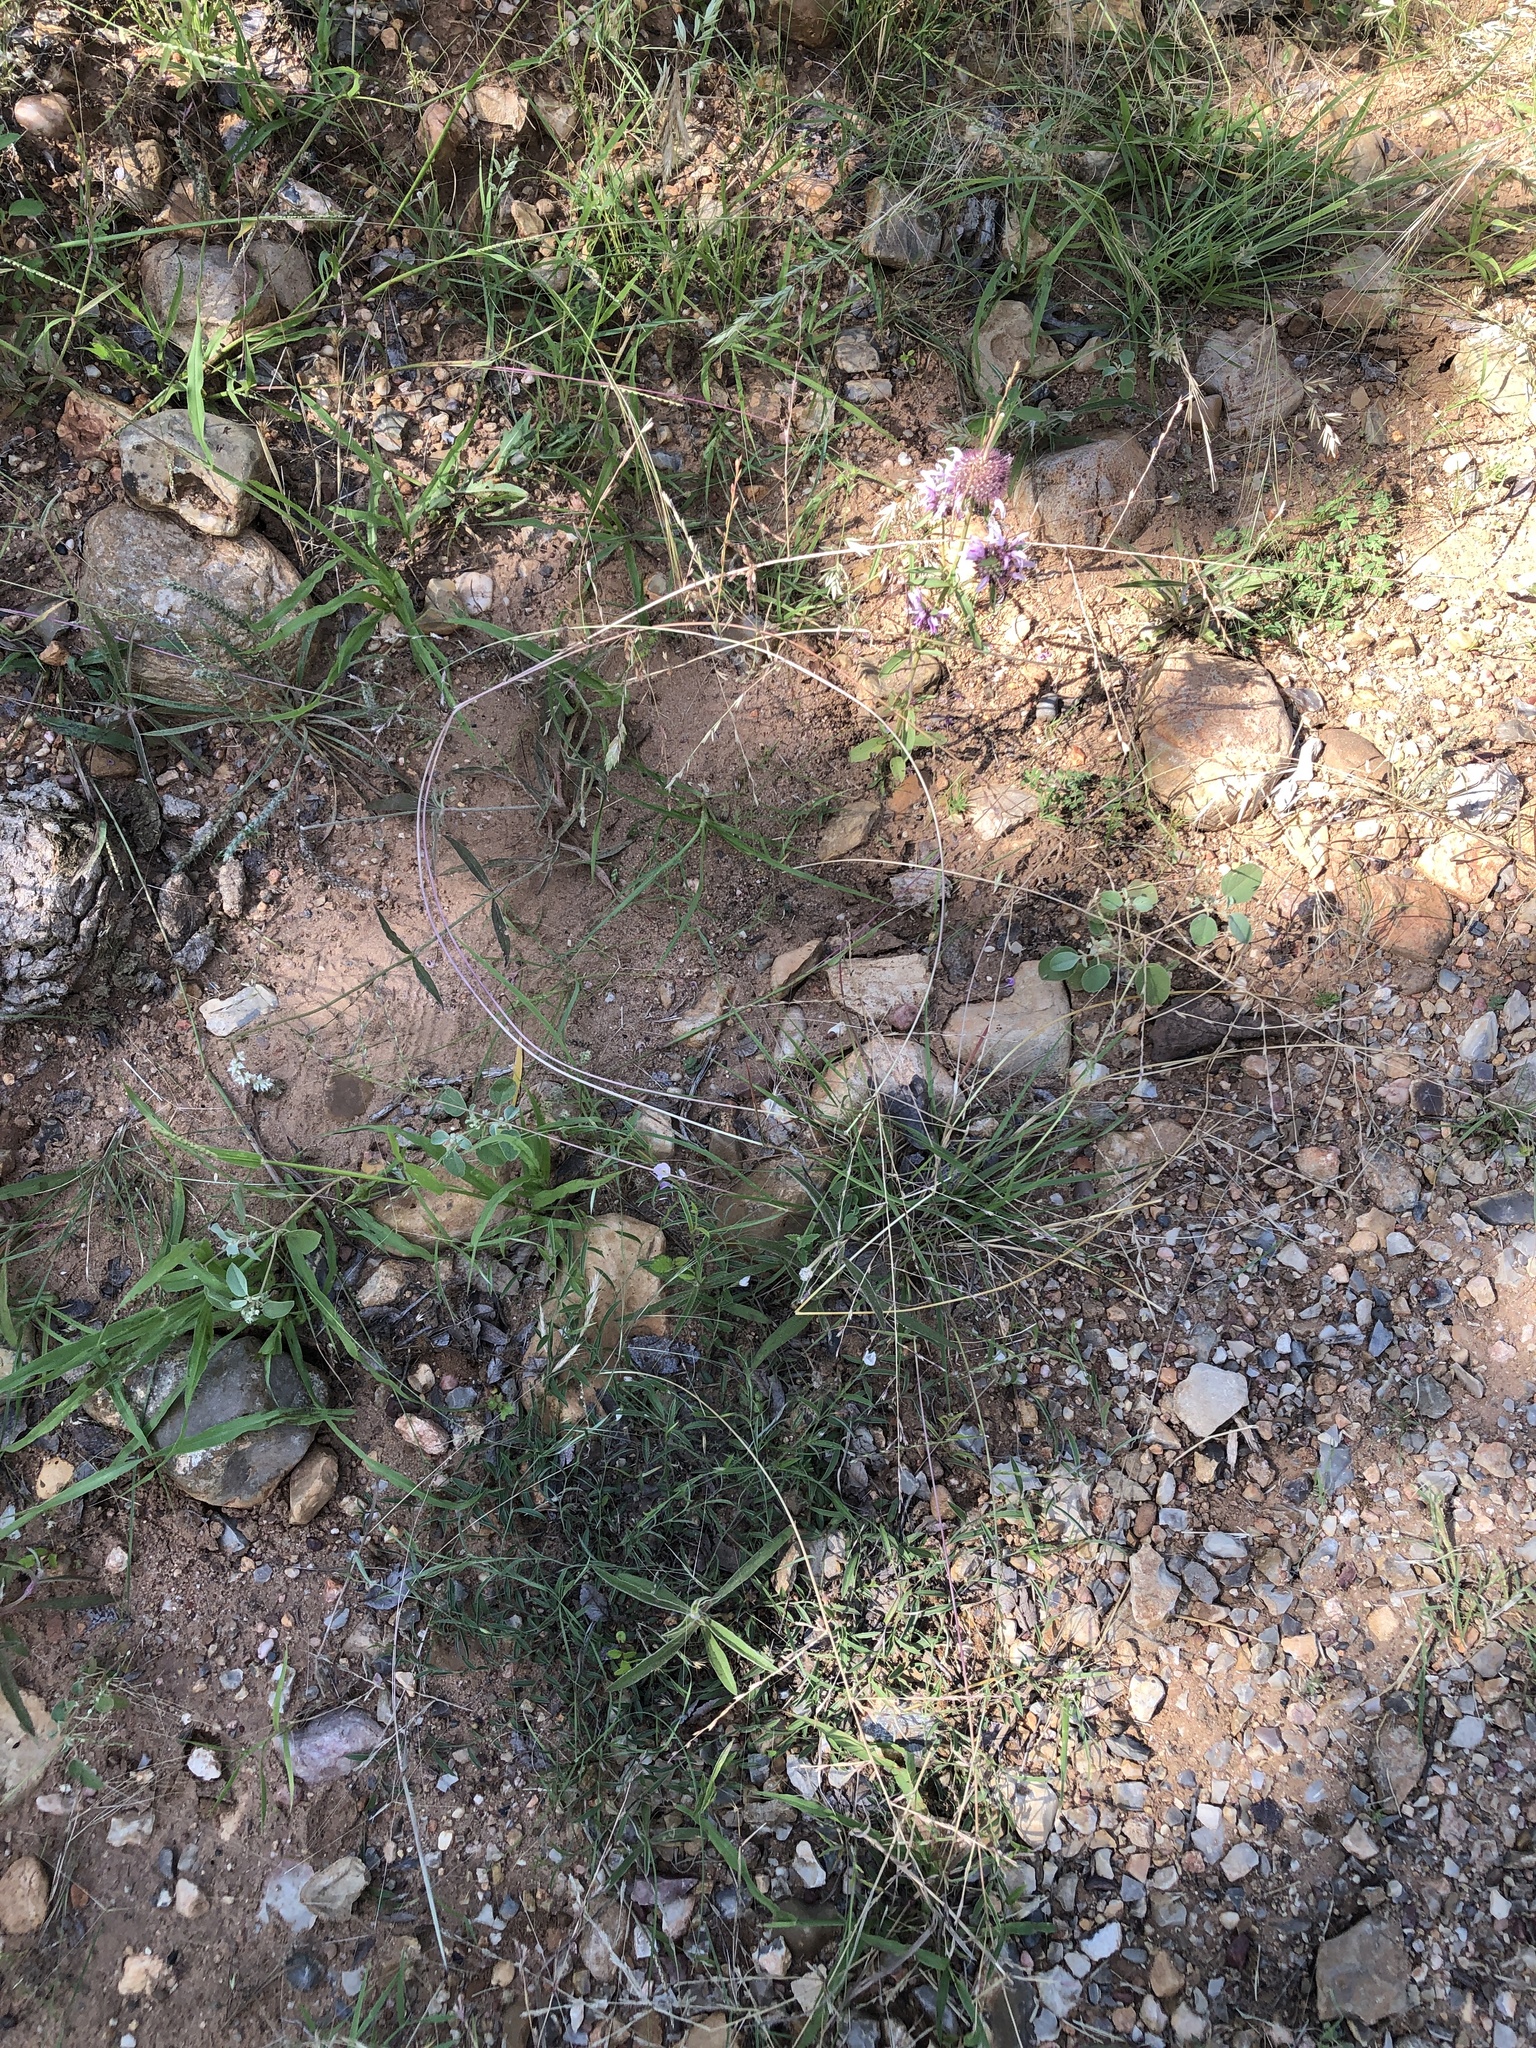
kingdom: Plantae
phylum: Tracheophyta
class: Liliopsida
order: Poales
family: Poaceae
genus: Eragrostis
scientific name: Eragrostis sessilispica
